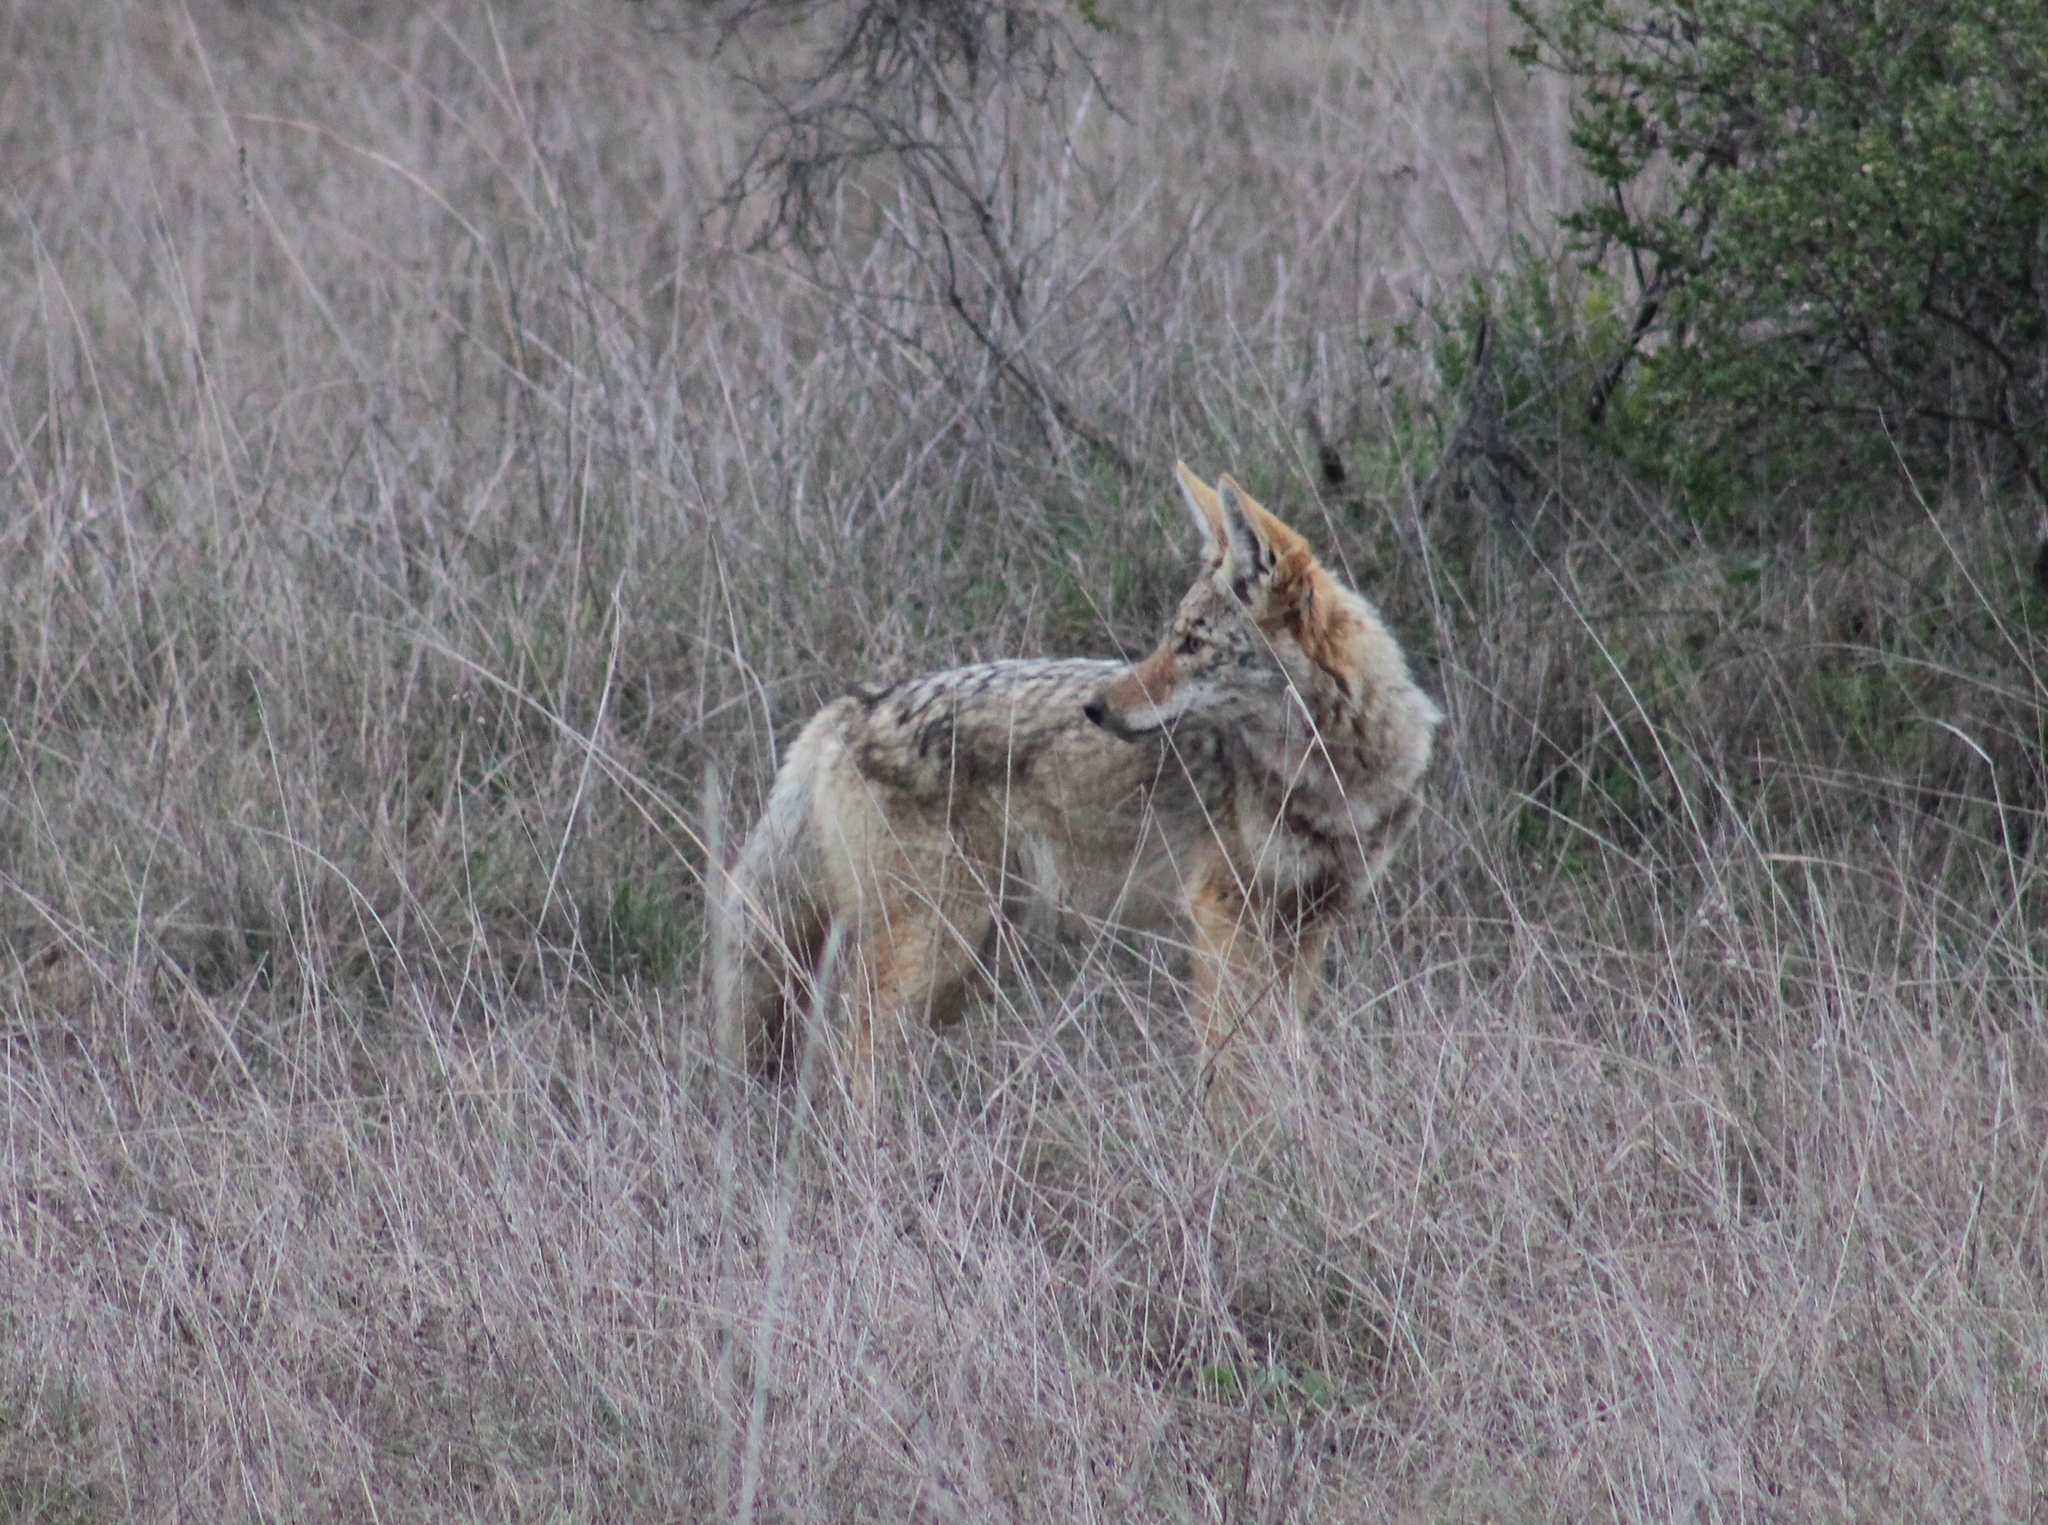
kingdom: Animalia
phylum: Chordata
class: Mammalia
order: Carnivora
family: Canidae
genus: Canis
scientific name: Canis latrans
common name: Coyote
